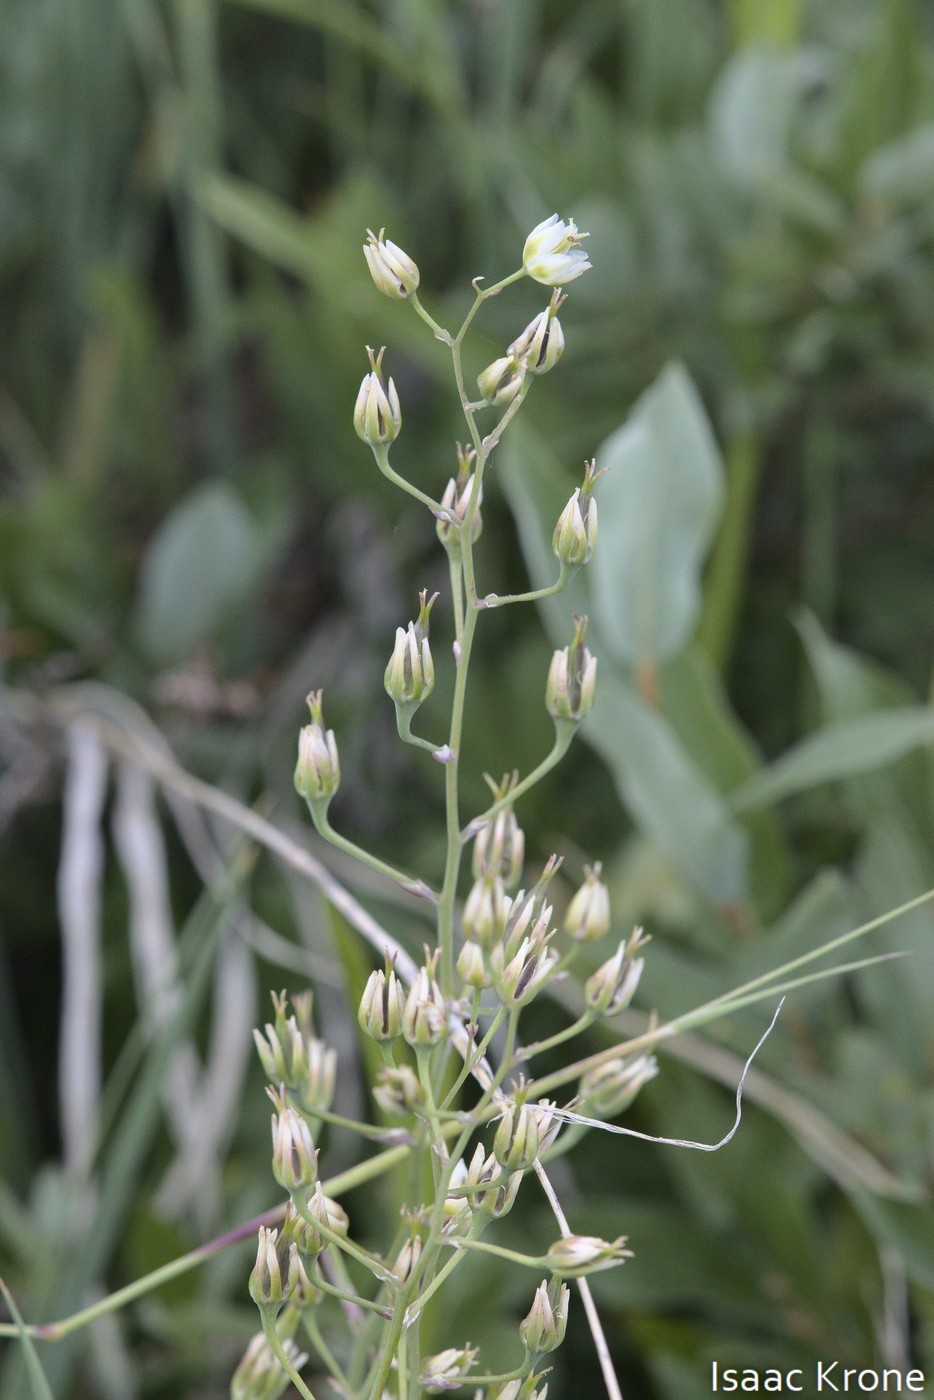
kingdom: Plantae
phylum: Tracheophyta
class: Liliopsida
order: Liliales
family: Melanthiaceae
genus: Anticlea
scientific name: Anticlea elegans
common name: Mountain death camas
